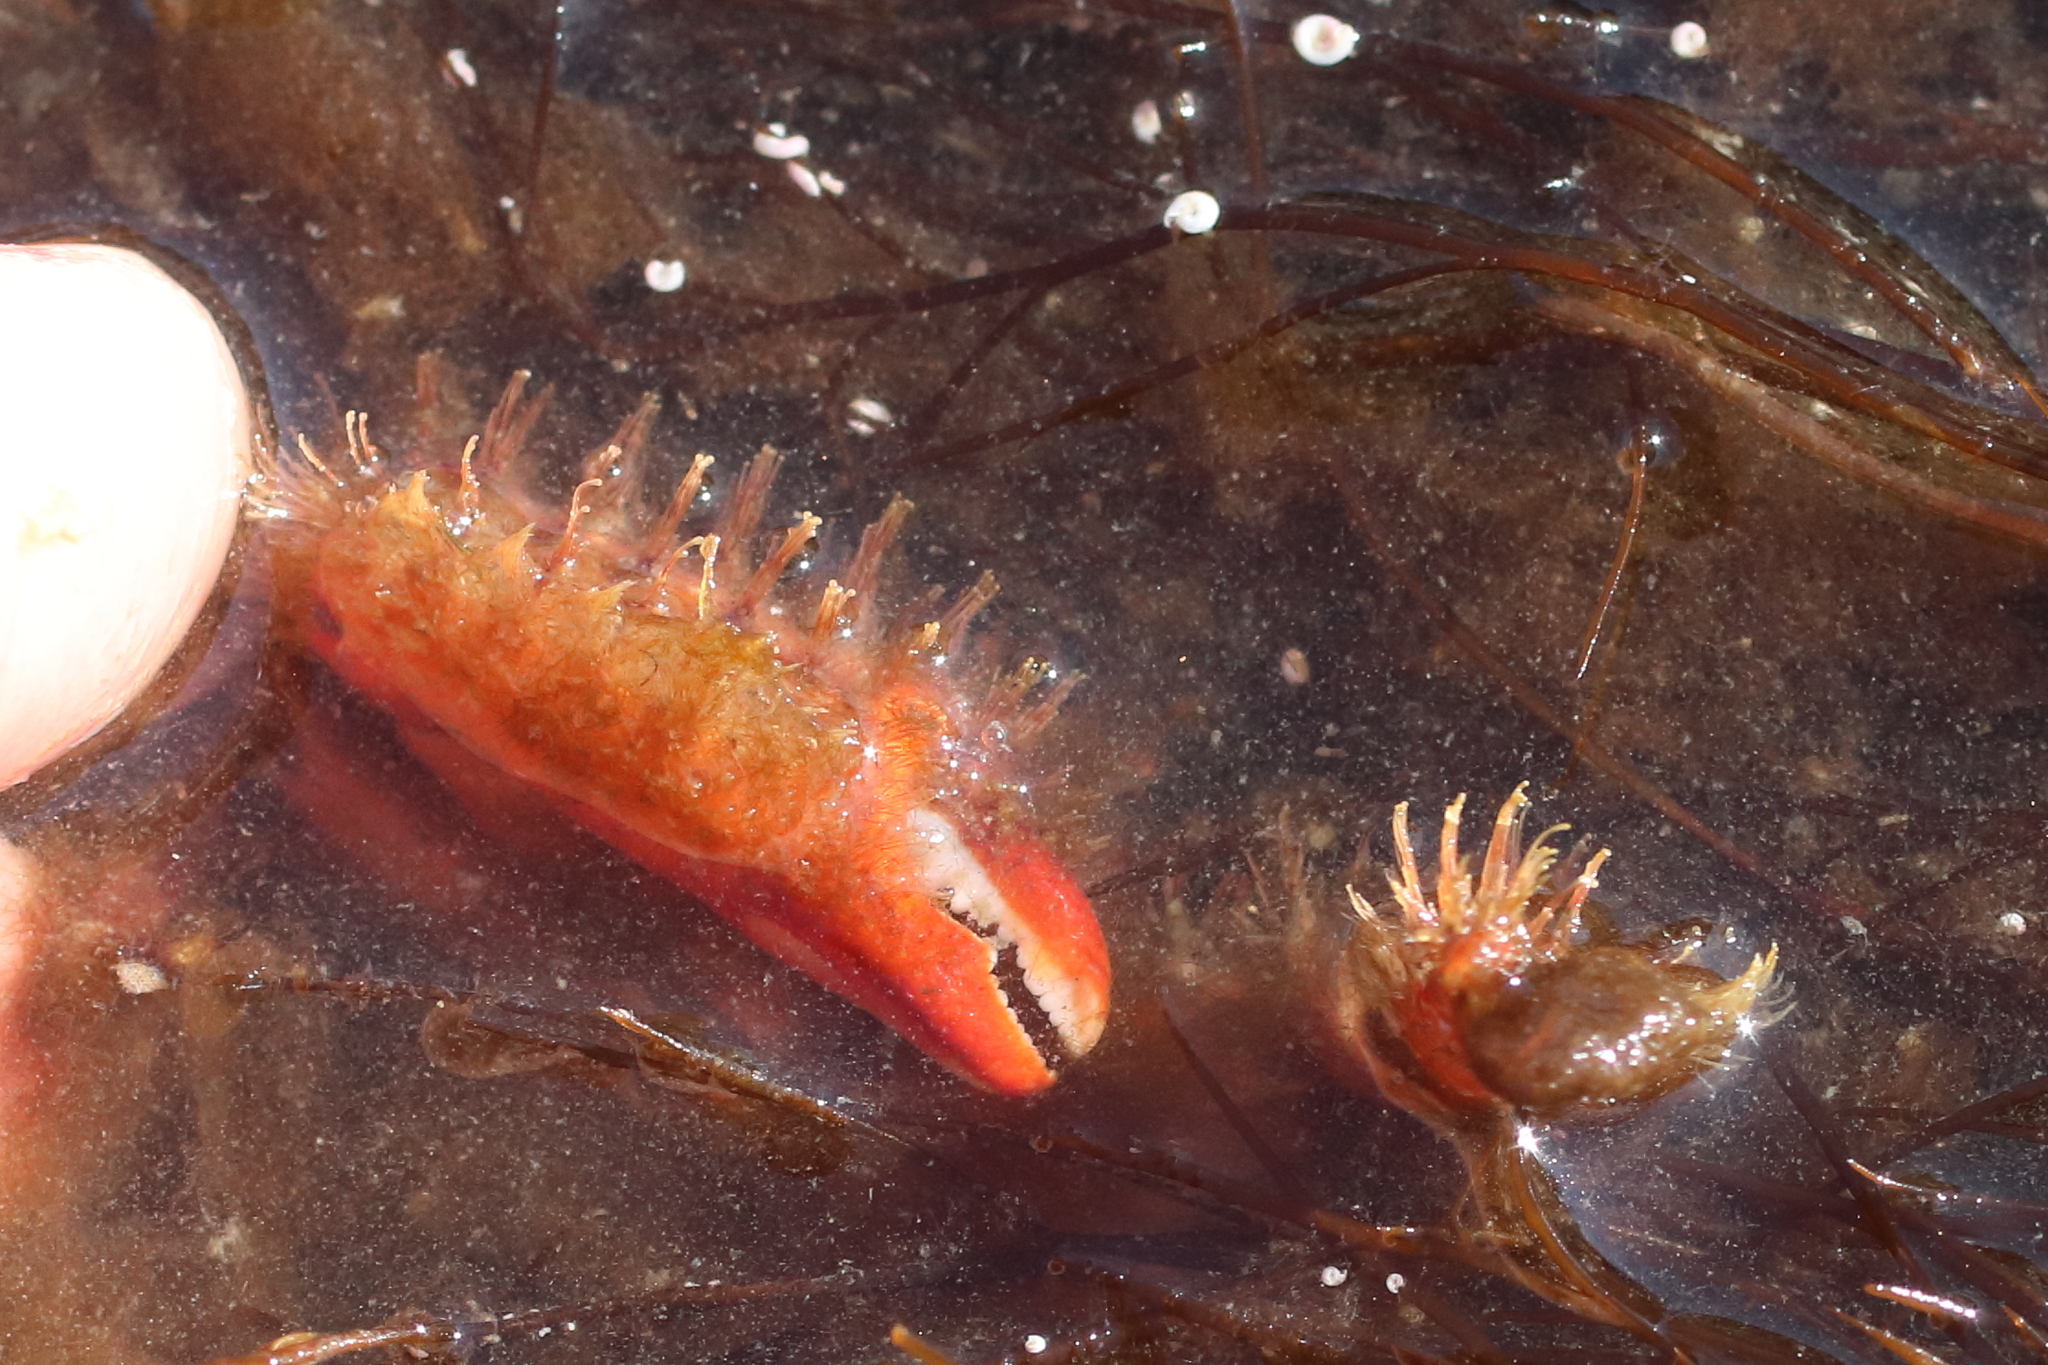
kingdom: Animalia
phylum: Arthropoda
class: Malacostraca
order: Decapoda
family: Hapalogastridae
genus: Hapalogaster
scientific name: Hapalogaster mertensii
